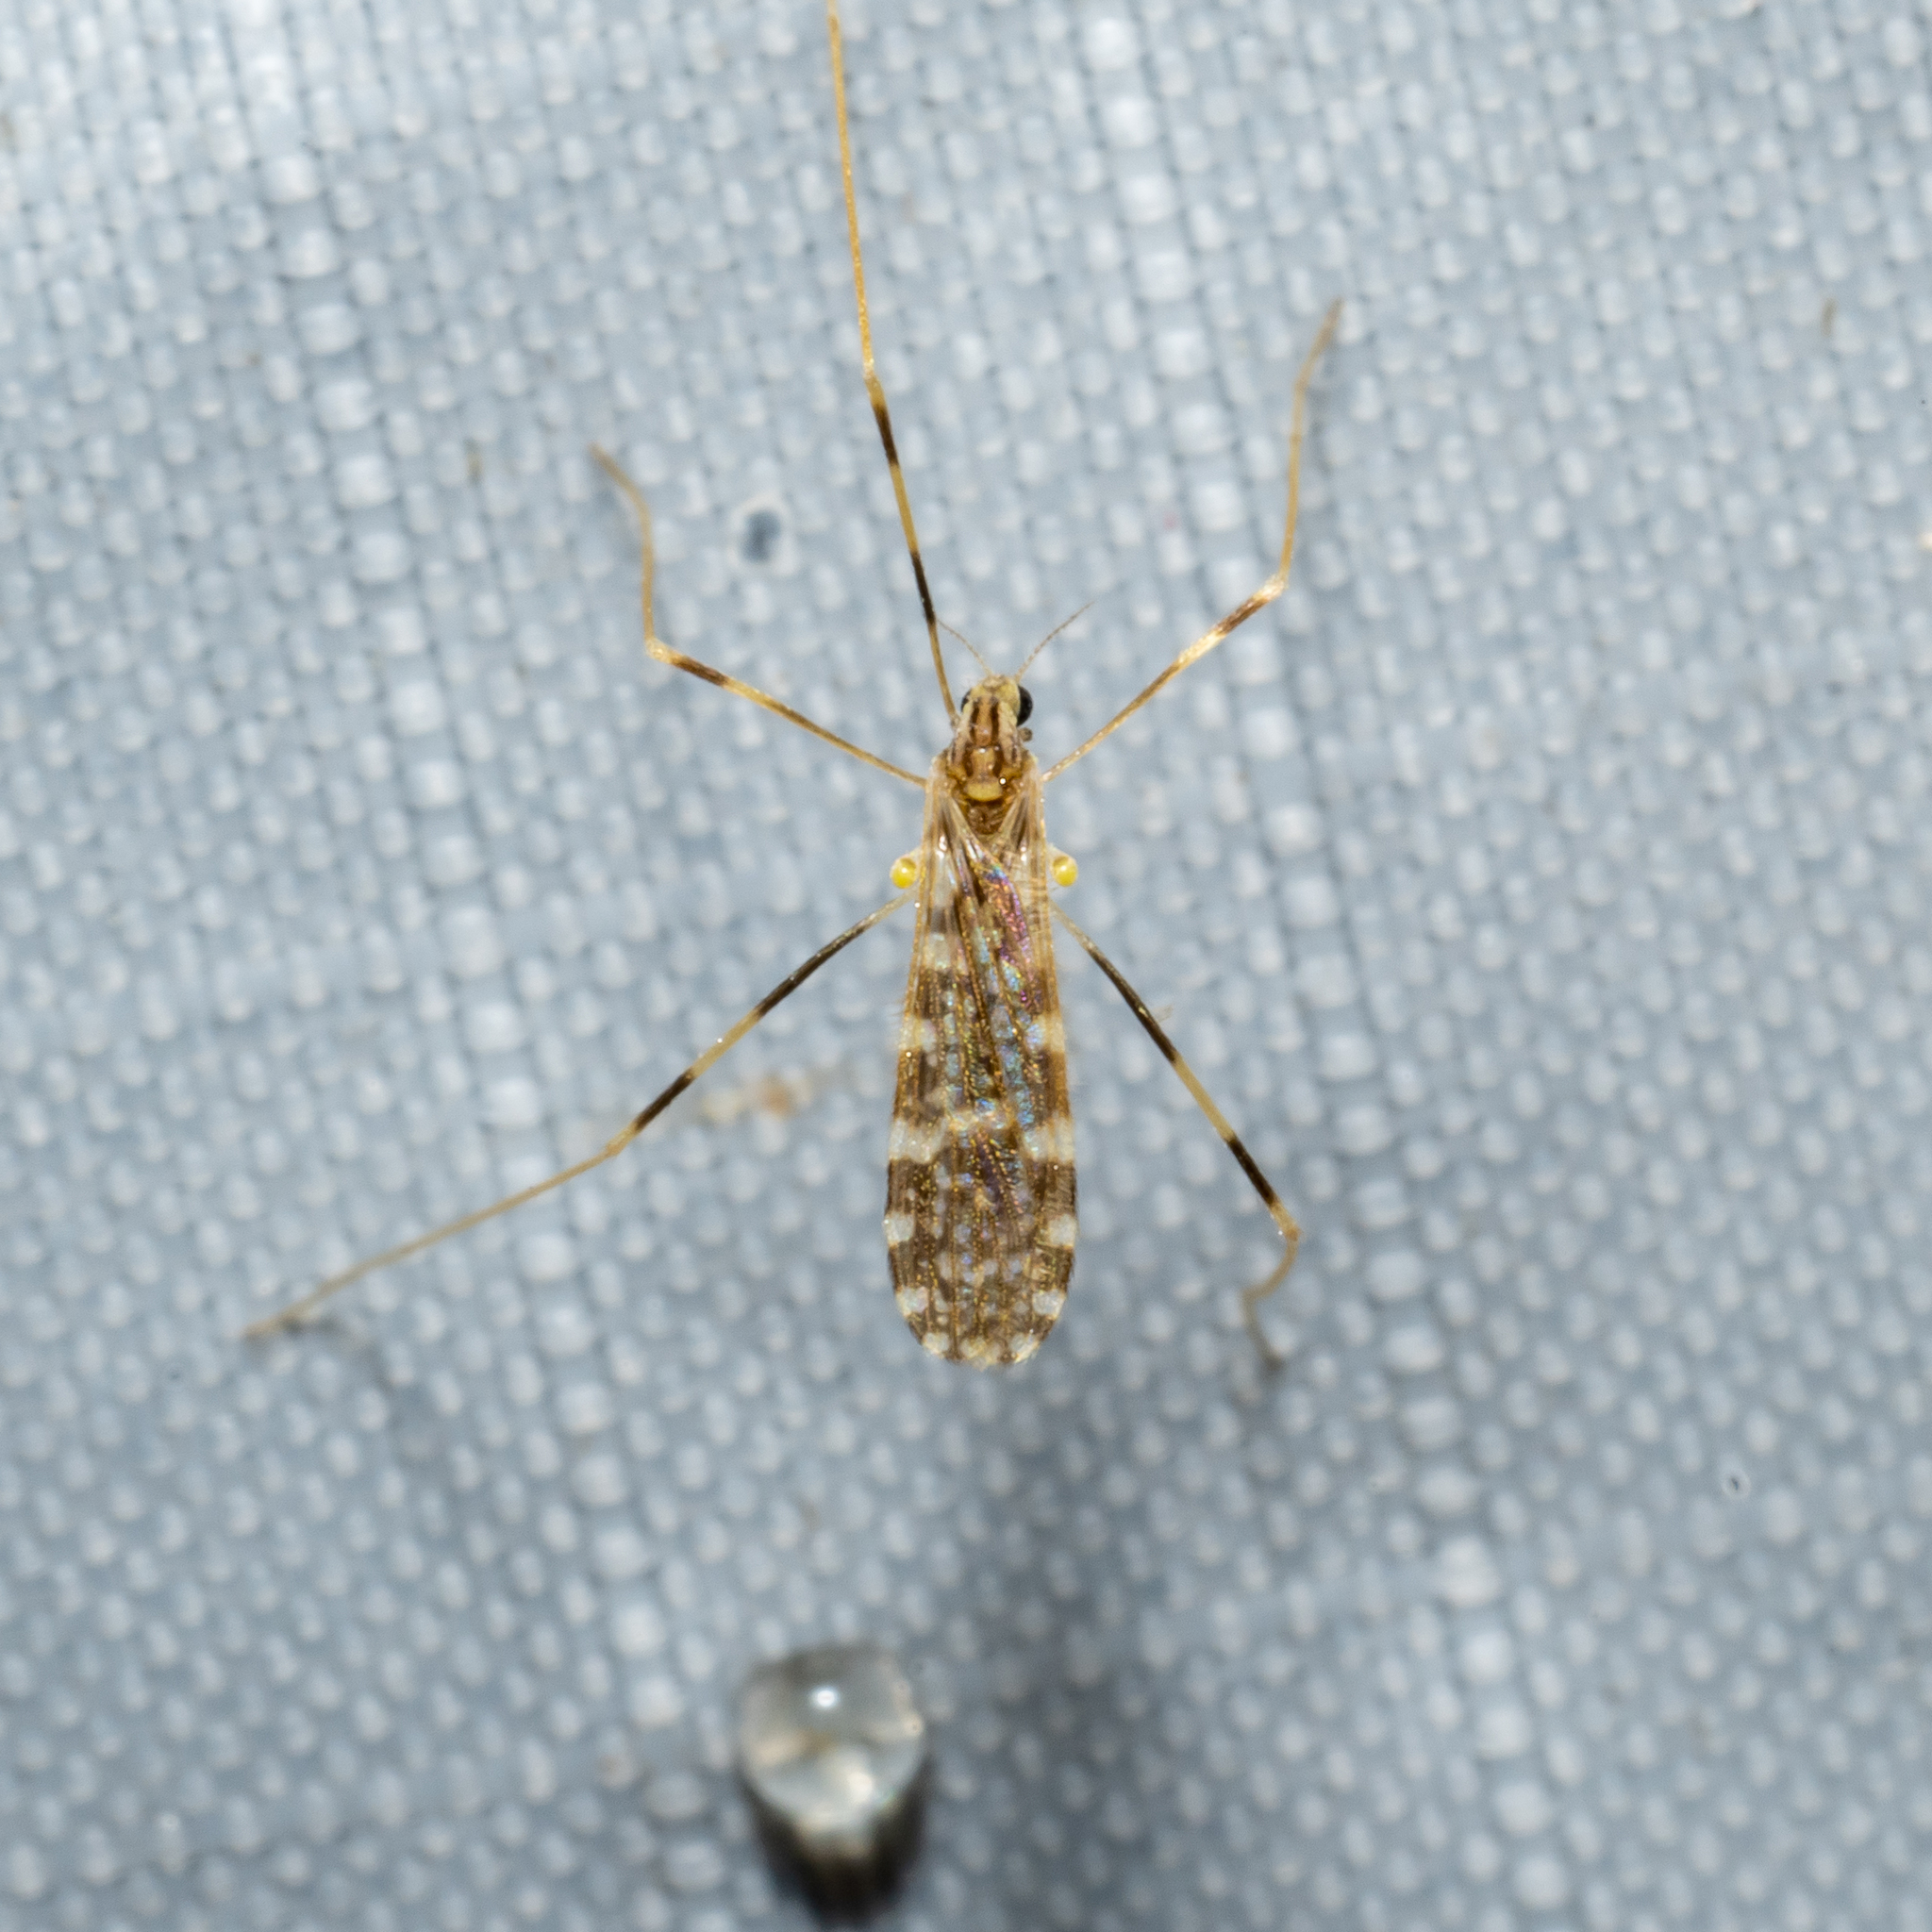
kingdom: Animalia
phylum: Arthropoda
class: Insecta
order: Diptera
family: Limoniidae
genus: Erioptera
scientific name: Erioptera caliptera
